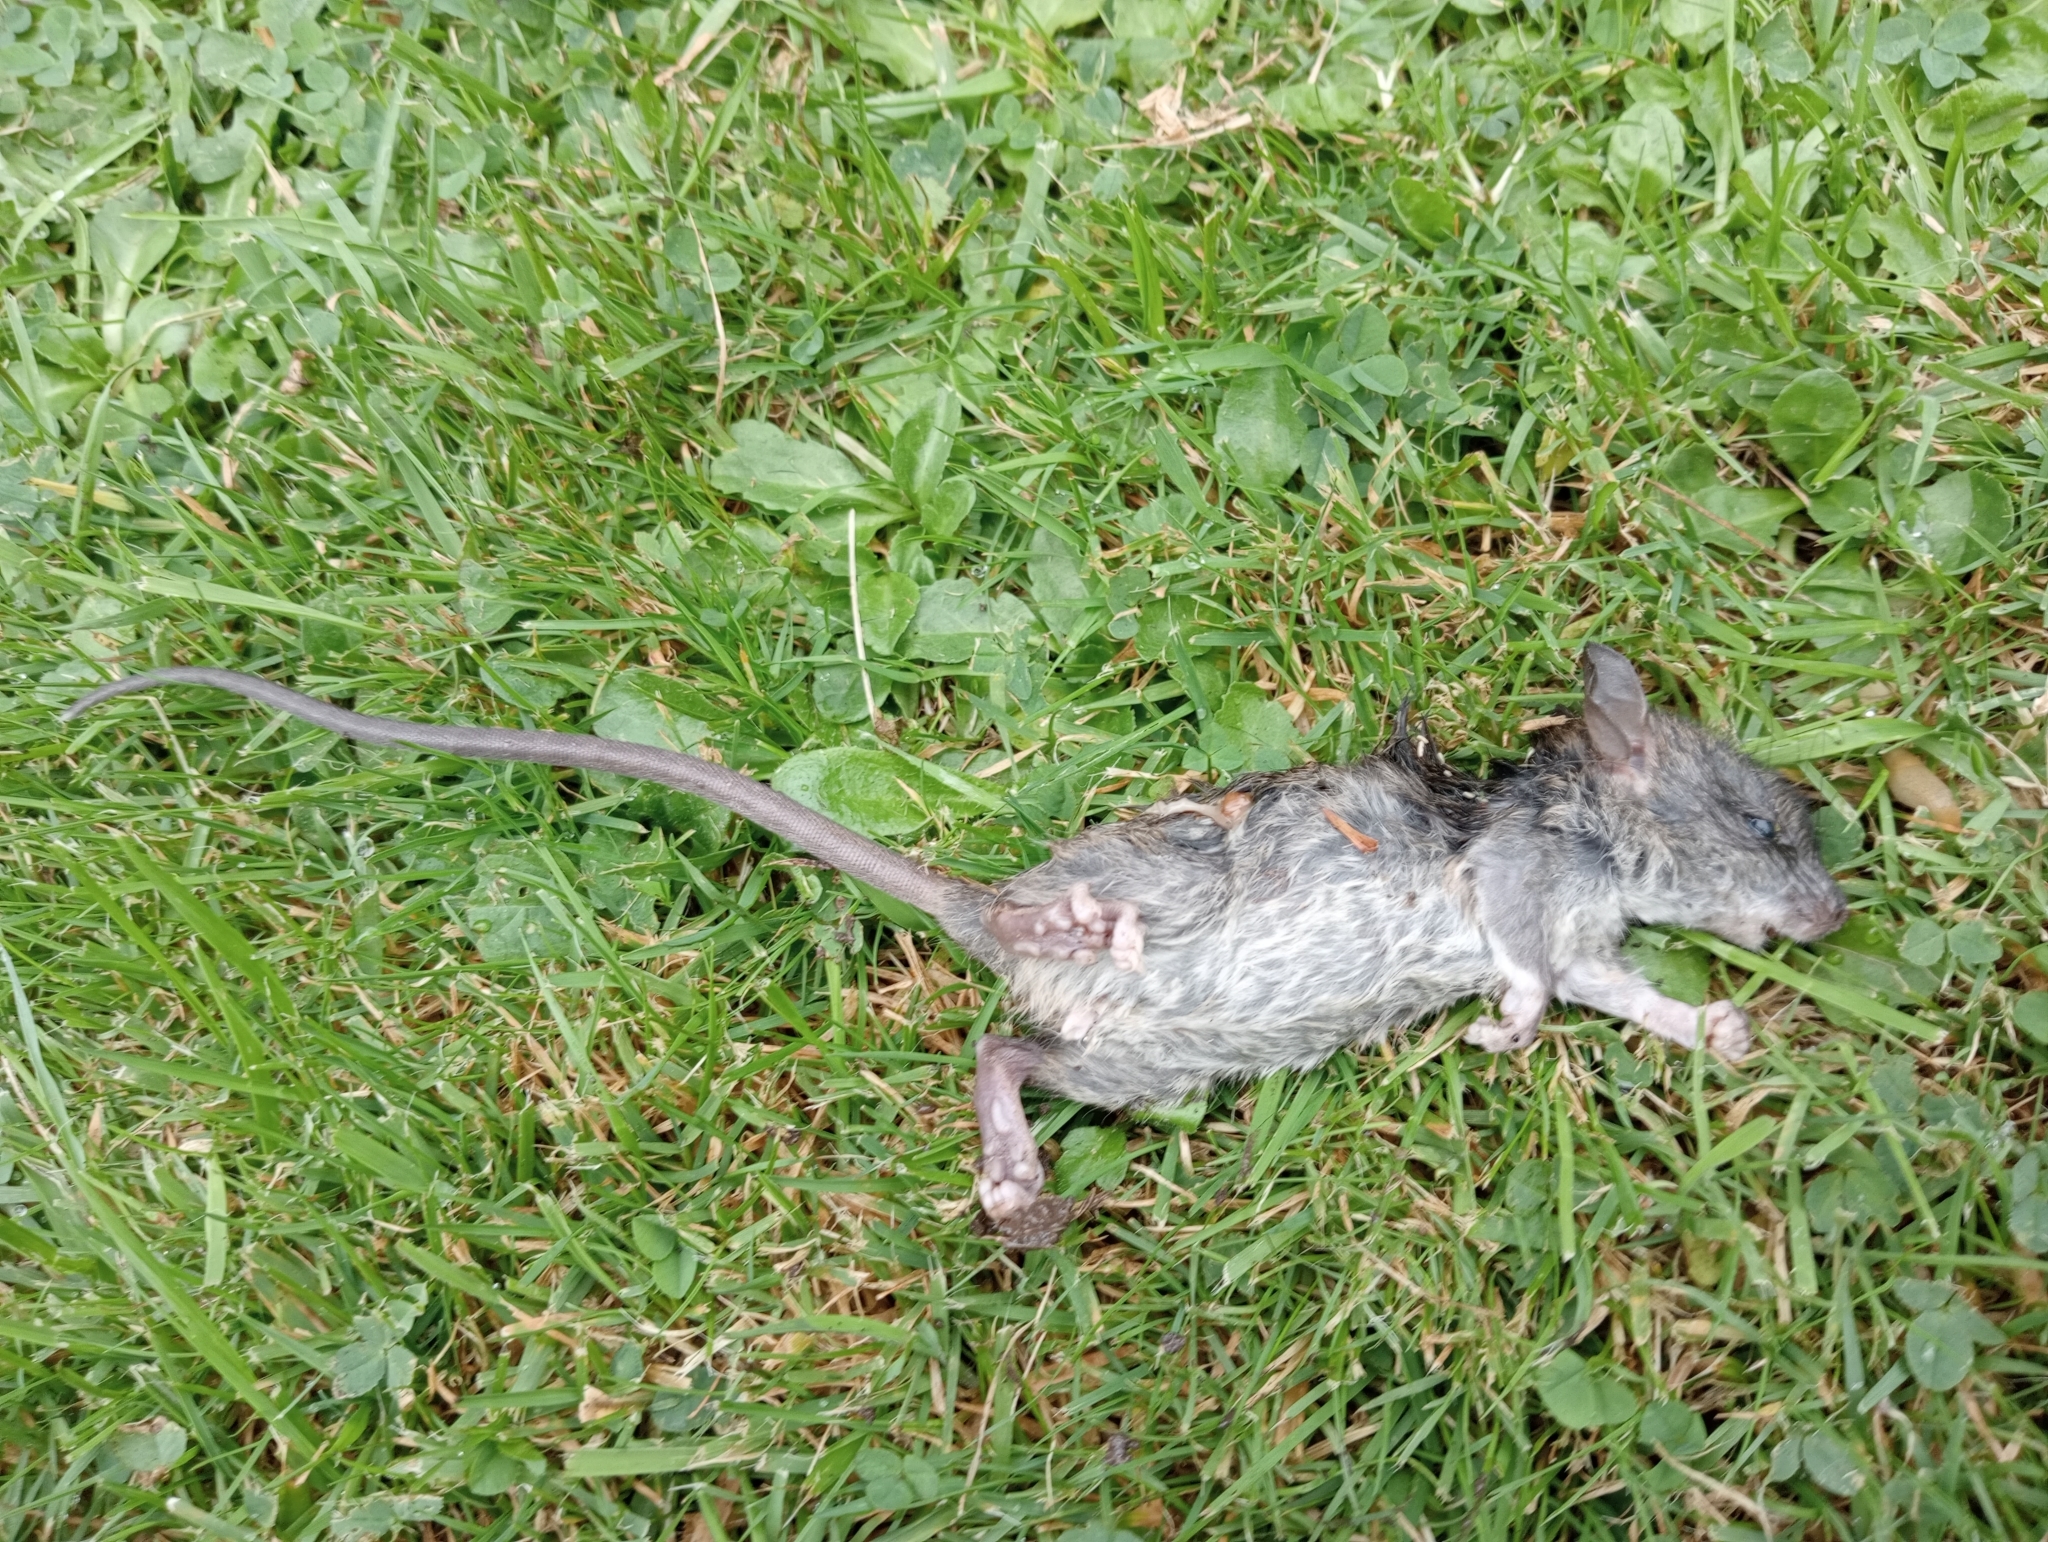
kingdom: Animalia
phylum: Chordata
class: Mammalia
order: Rodentia
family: Muridae
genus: Rattus
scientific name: Rattus rattus
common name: Black rat
